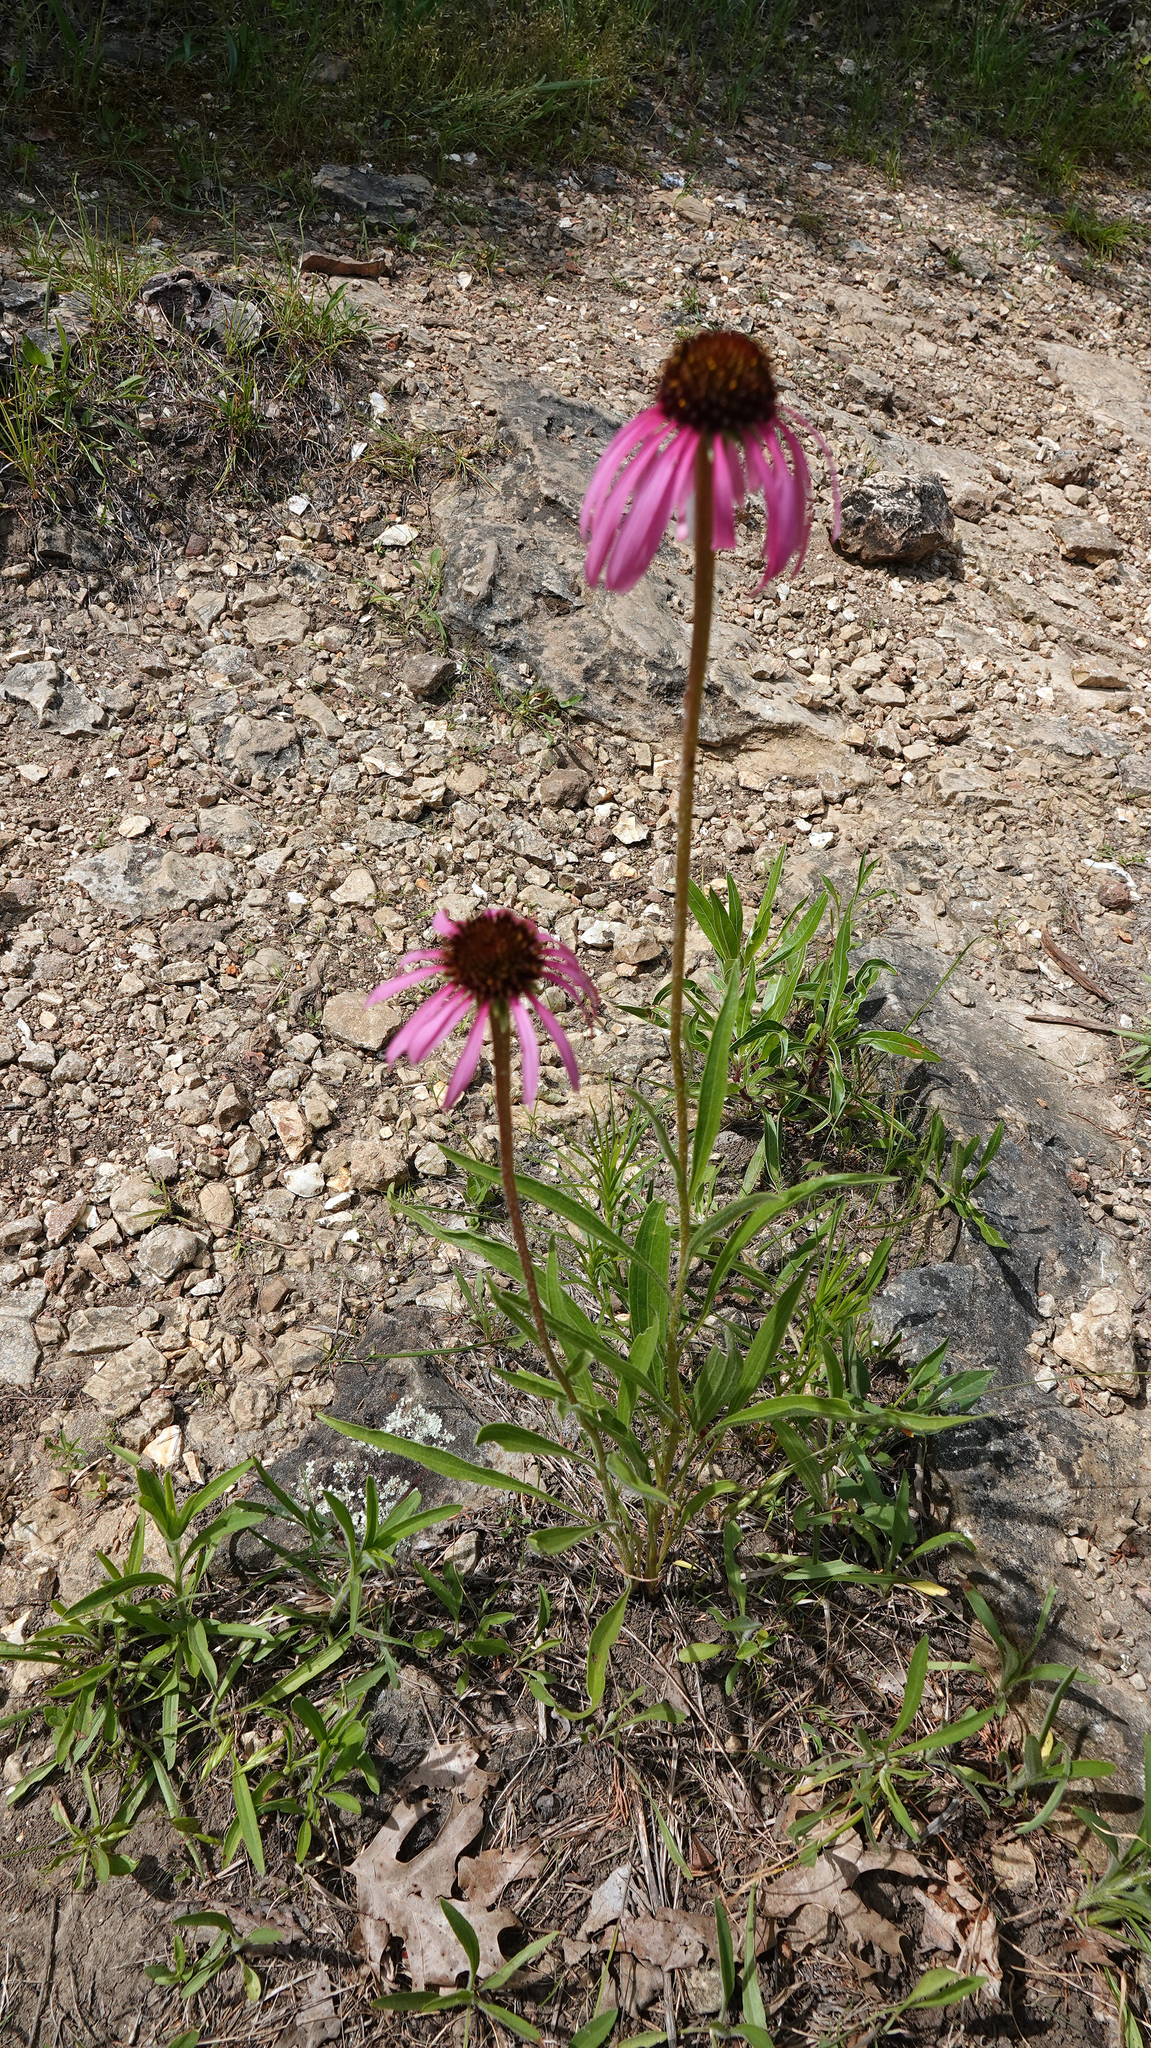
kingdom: Plantae
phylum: Tracheophyta
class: Magnoliopsida
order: Asterales
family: Asteraceae
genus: Echinacea
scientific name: Echinacea simulata
